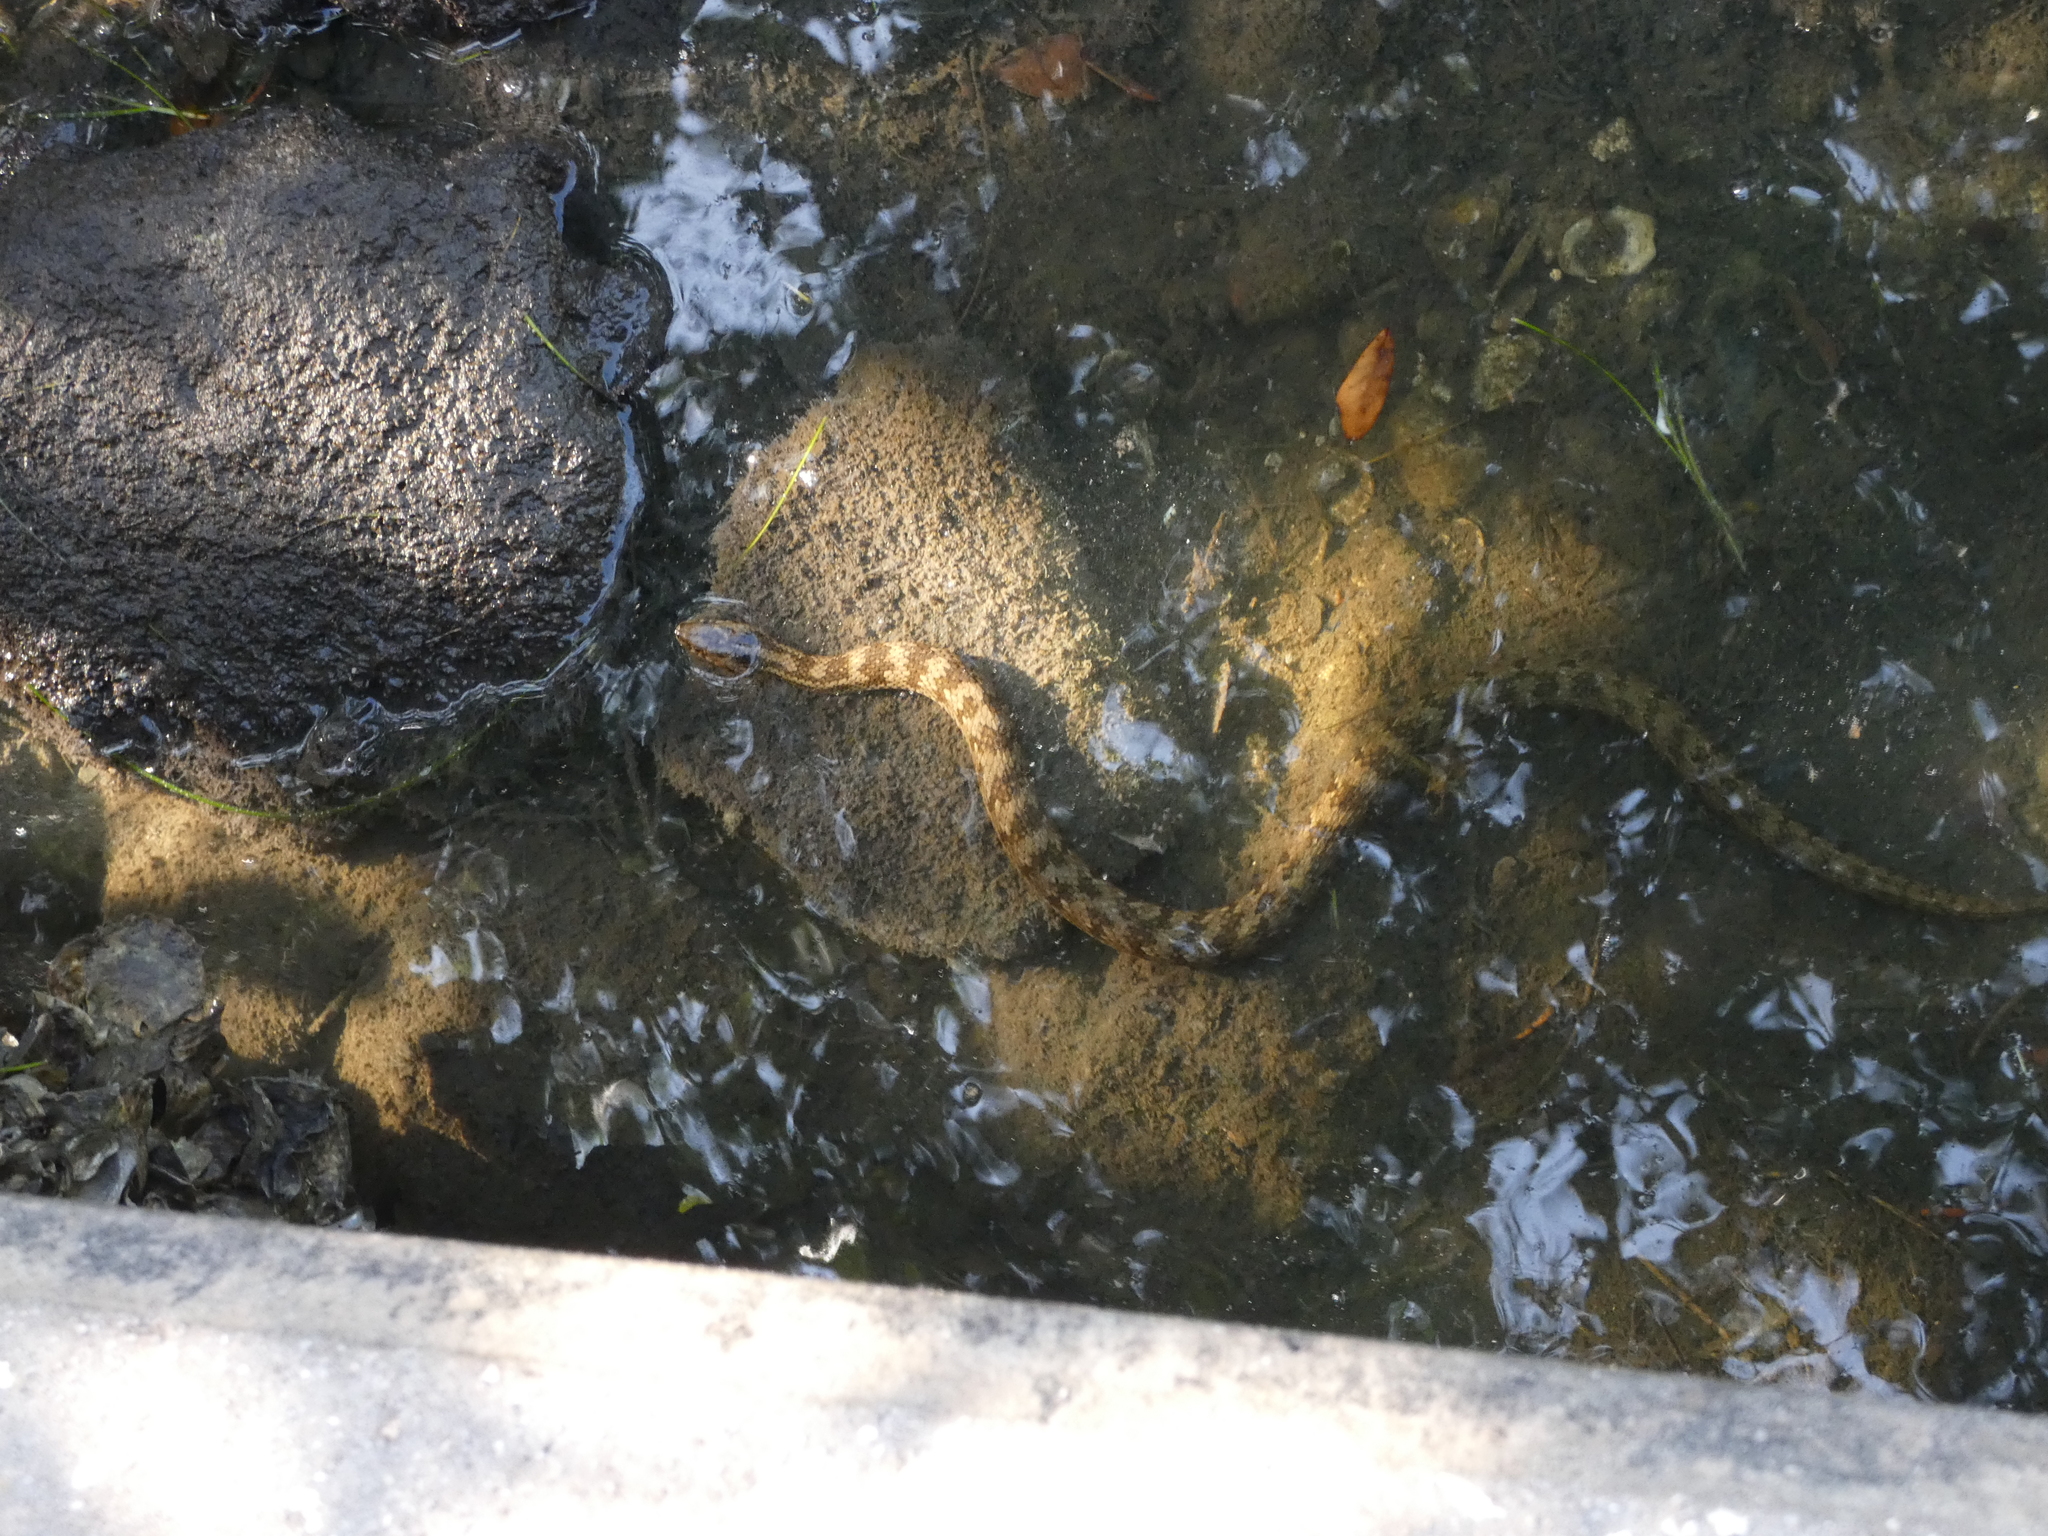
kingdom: Animalia
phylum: Chordata
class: Squamata
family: Colubridae
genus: Nerodia
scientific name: Nerodia clarkii
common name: Atlantic saltmarsh snake
